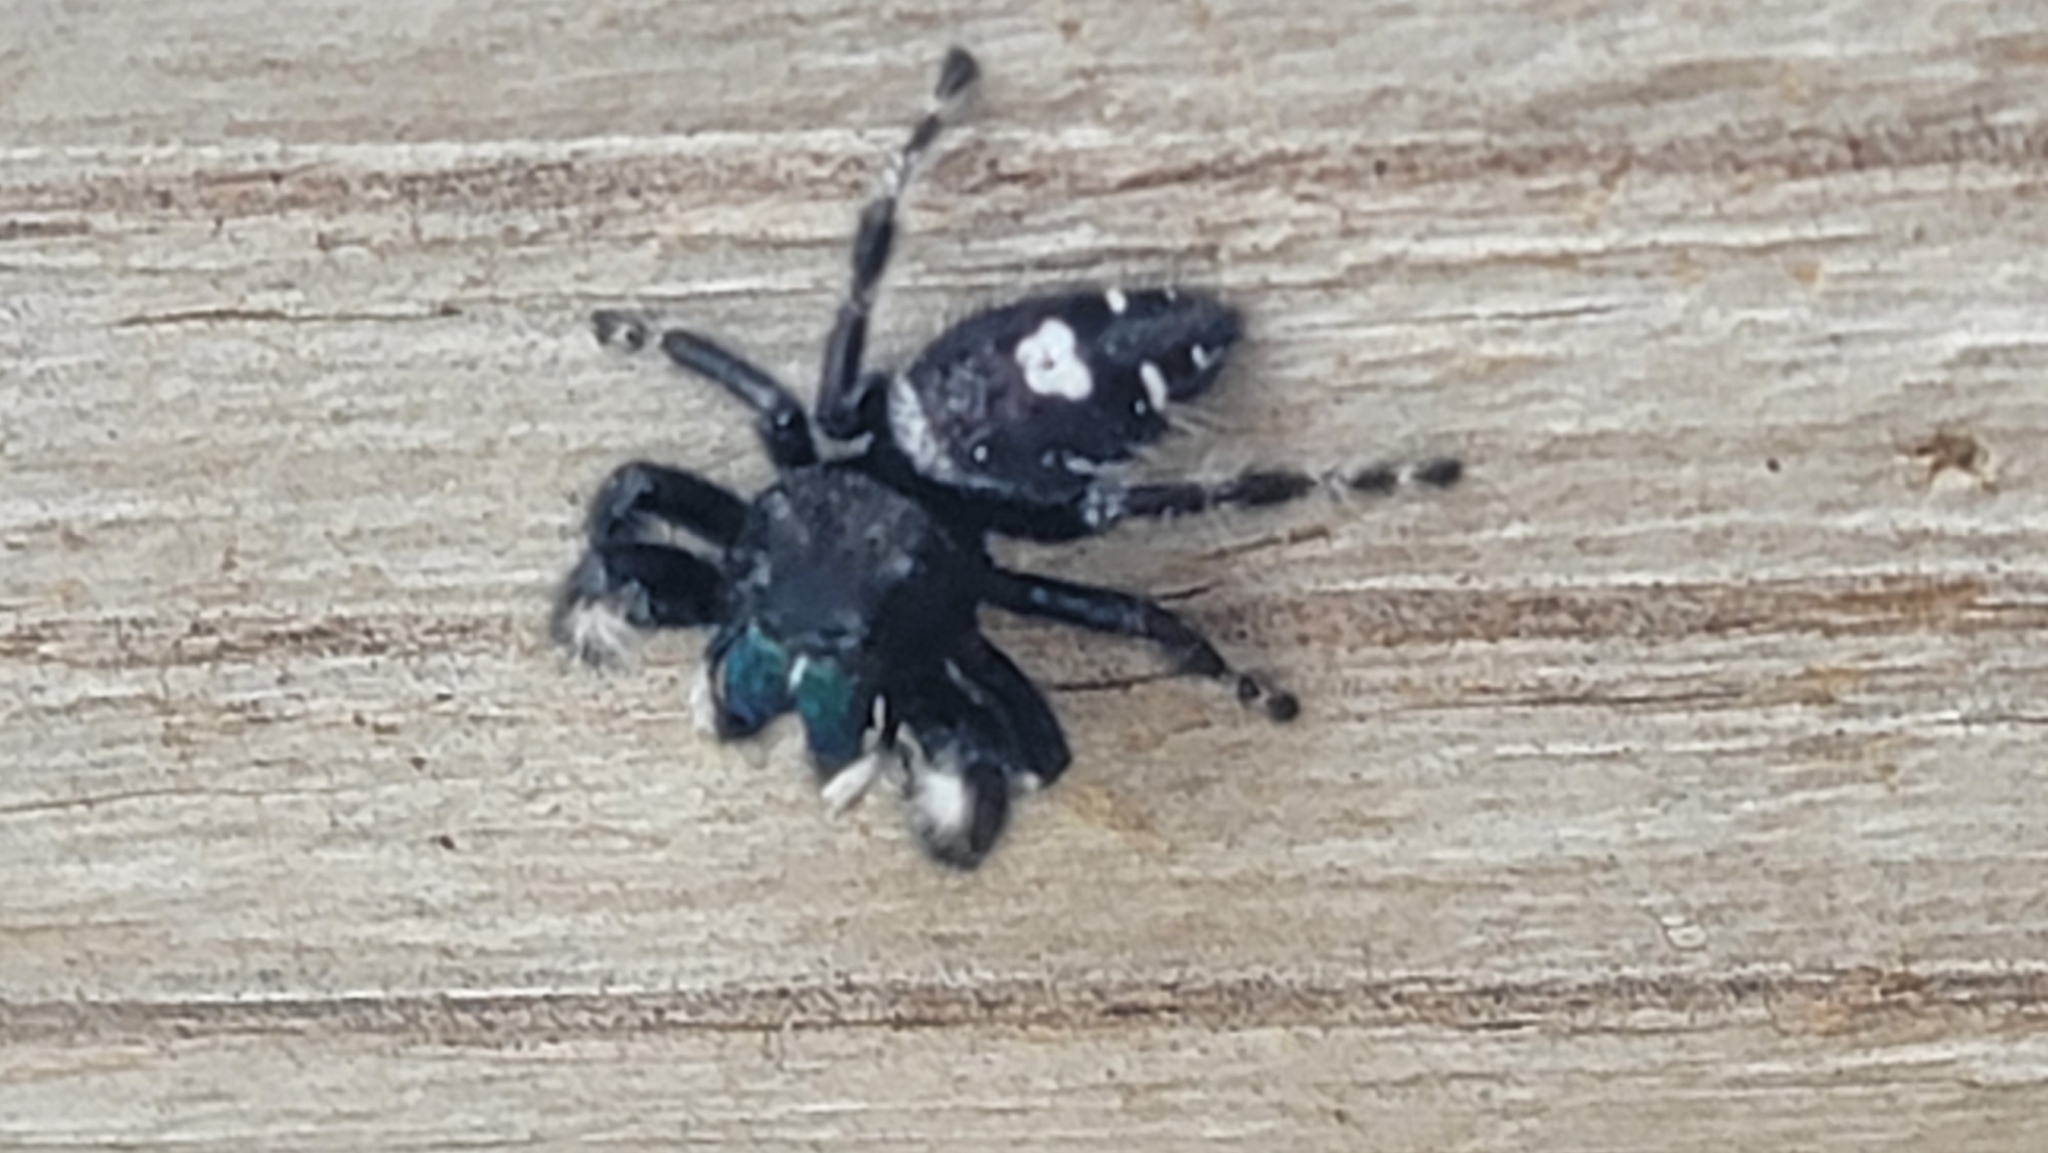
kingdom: Animalia
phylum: Arthropoda
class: Arachnida
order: Araneae
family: Salticidae
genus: Phidippus
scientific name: Phidippus audax
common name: Bold jumper
